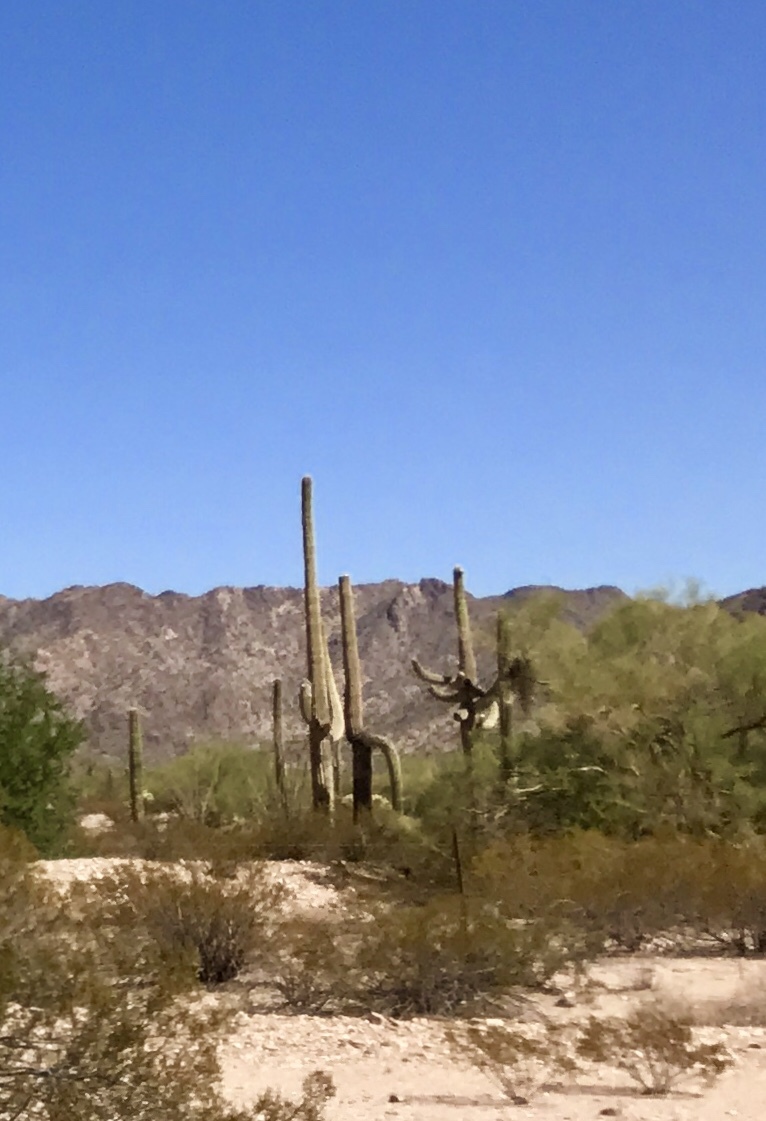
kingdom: Plantae
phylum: Tracheophyta
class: Magnoliopsida
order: Caryophyllales
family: Cactaceae
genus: Carnegiea
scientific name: Carnegiea gigantea
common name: Saguaro
